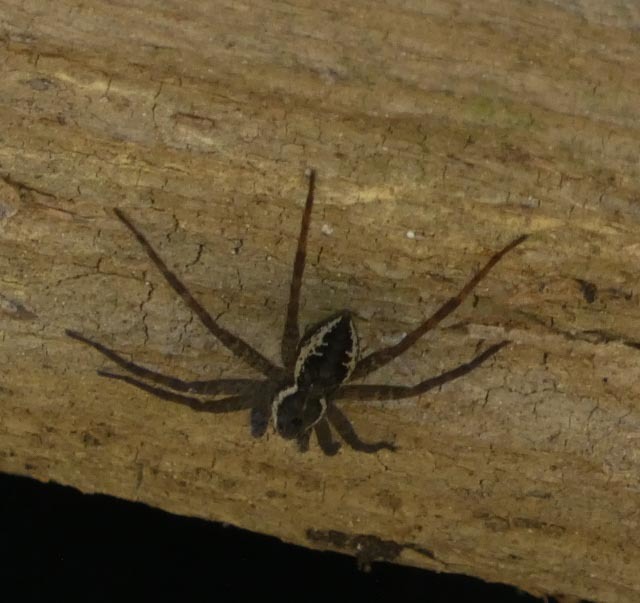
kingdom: Animalia
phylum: Arthropoda
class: Arachnida
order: Araneae
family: Pisauridae
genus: Dolomedes
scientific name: Dolomedes vittatus
